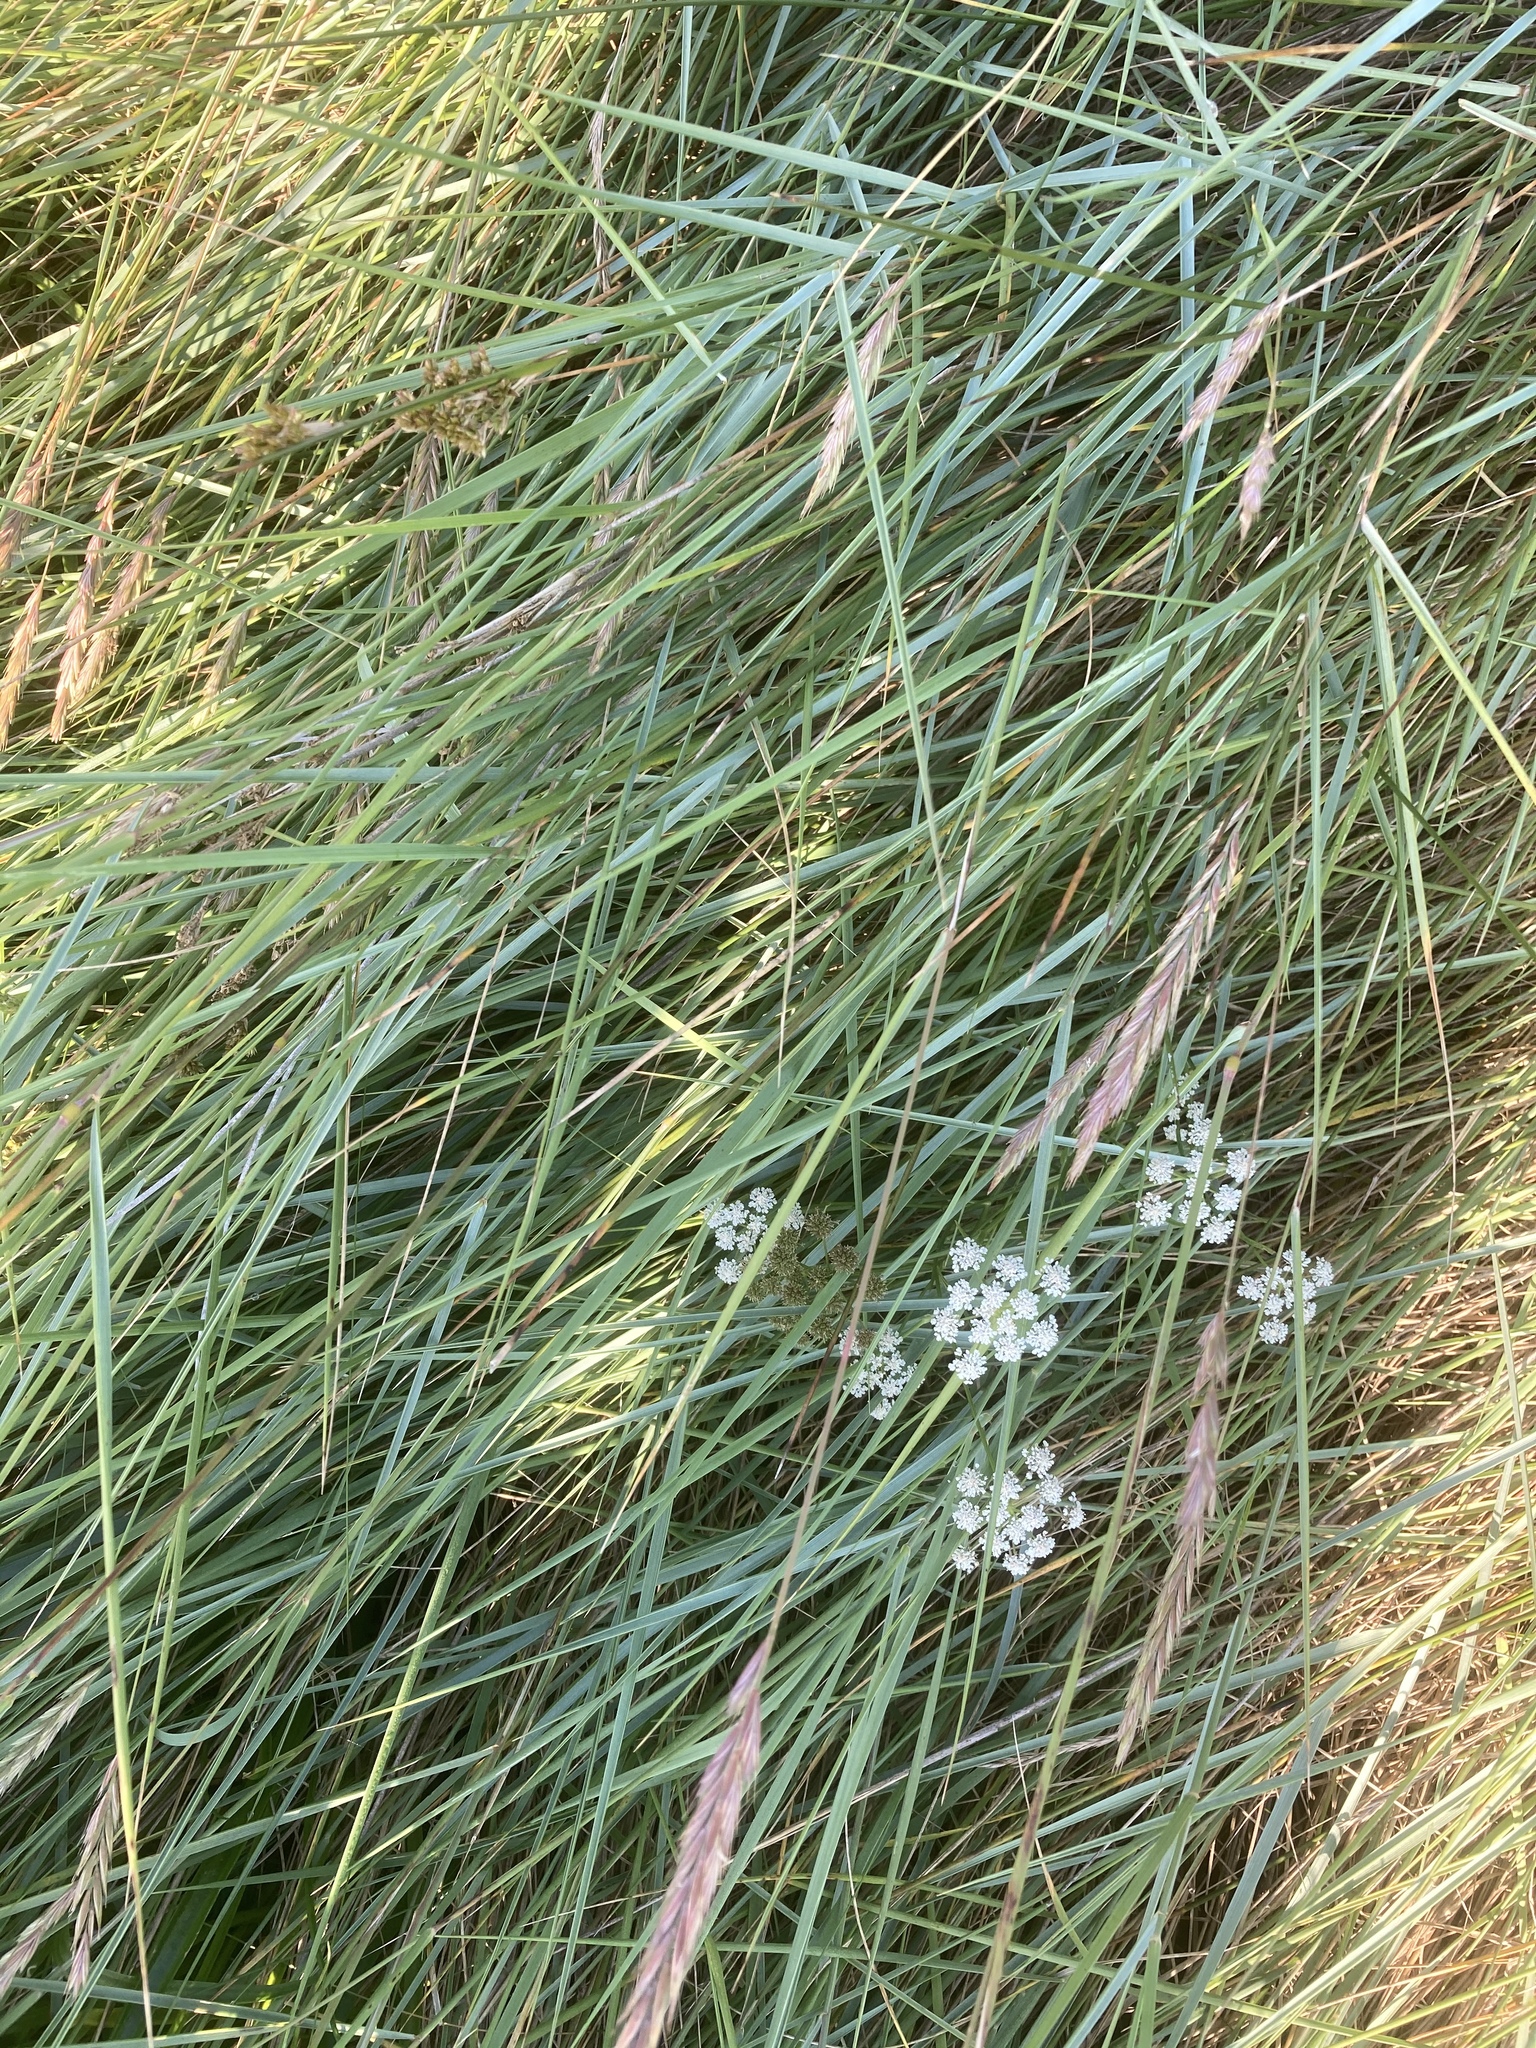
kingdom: Plantae
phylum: Tracheophyta
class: Magnoliopsida
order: Apiales
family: Apiaceae
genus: Oenanthe
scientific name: Oenanthe lachenalii
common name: Parsley water-dropwort
